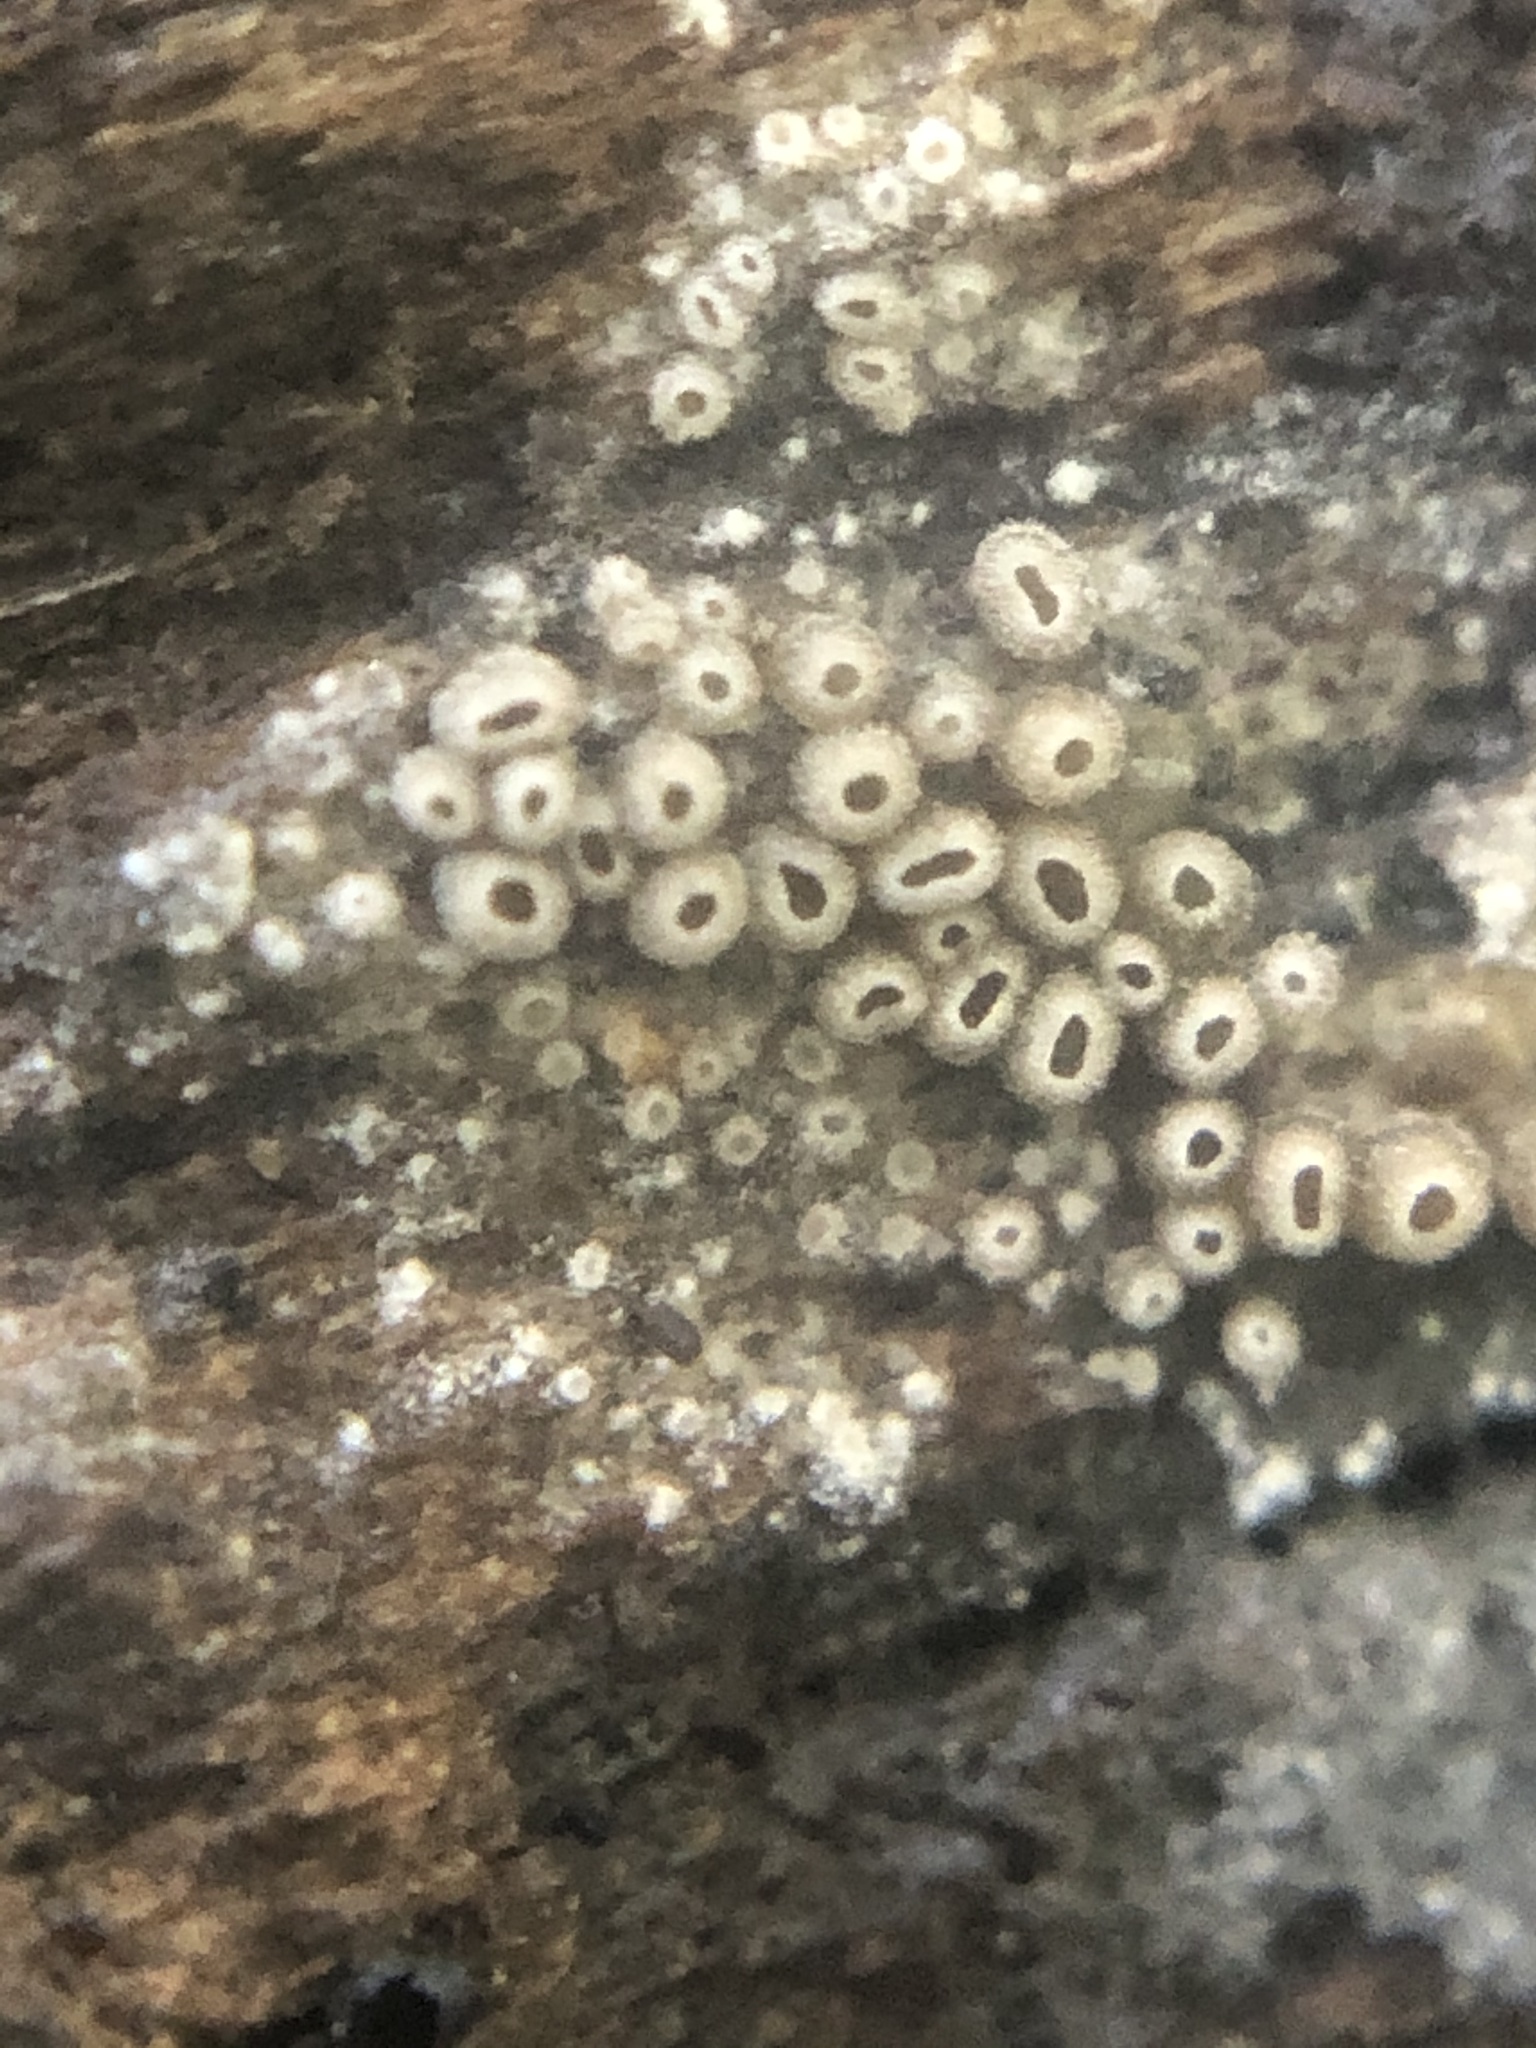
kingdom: Fungi
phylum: Basidiomycota
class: Agaricomycetes
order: Agaricales
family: Niaceae
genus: Merismodes
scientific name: Merismodes anomala
